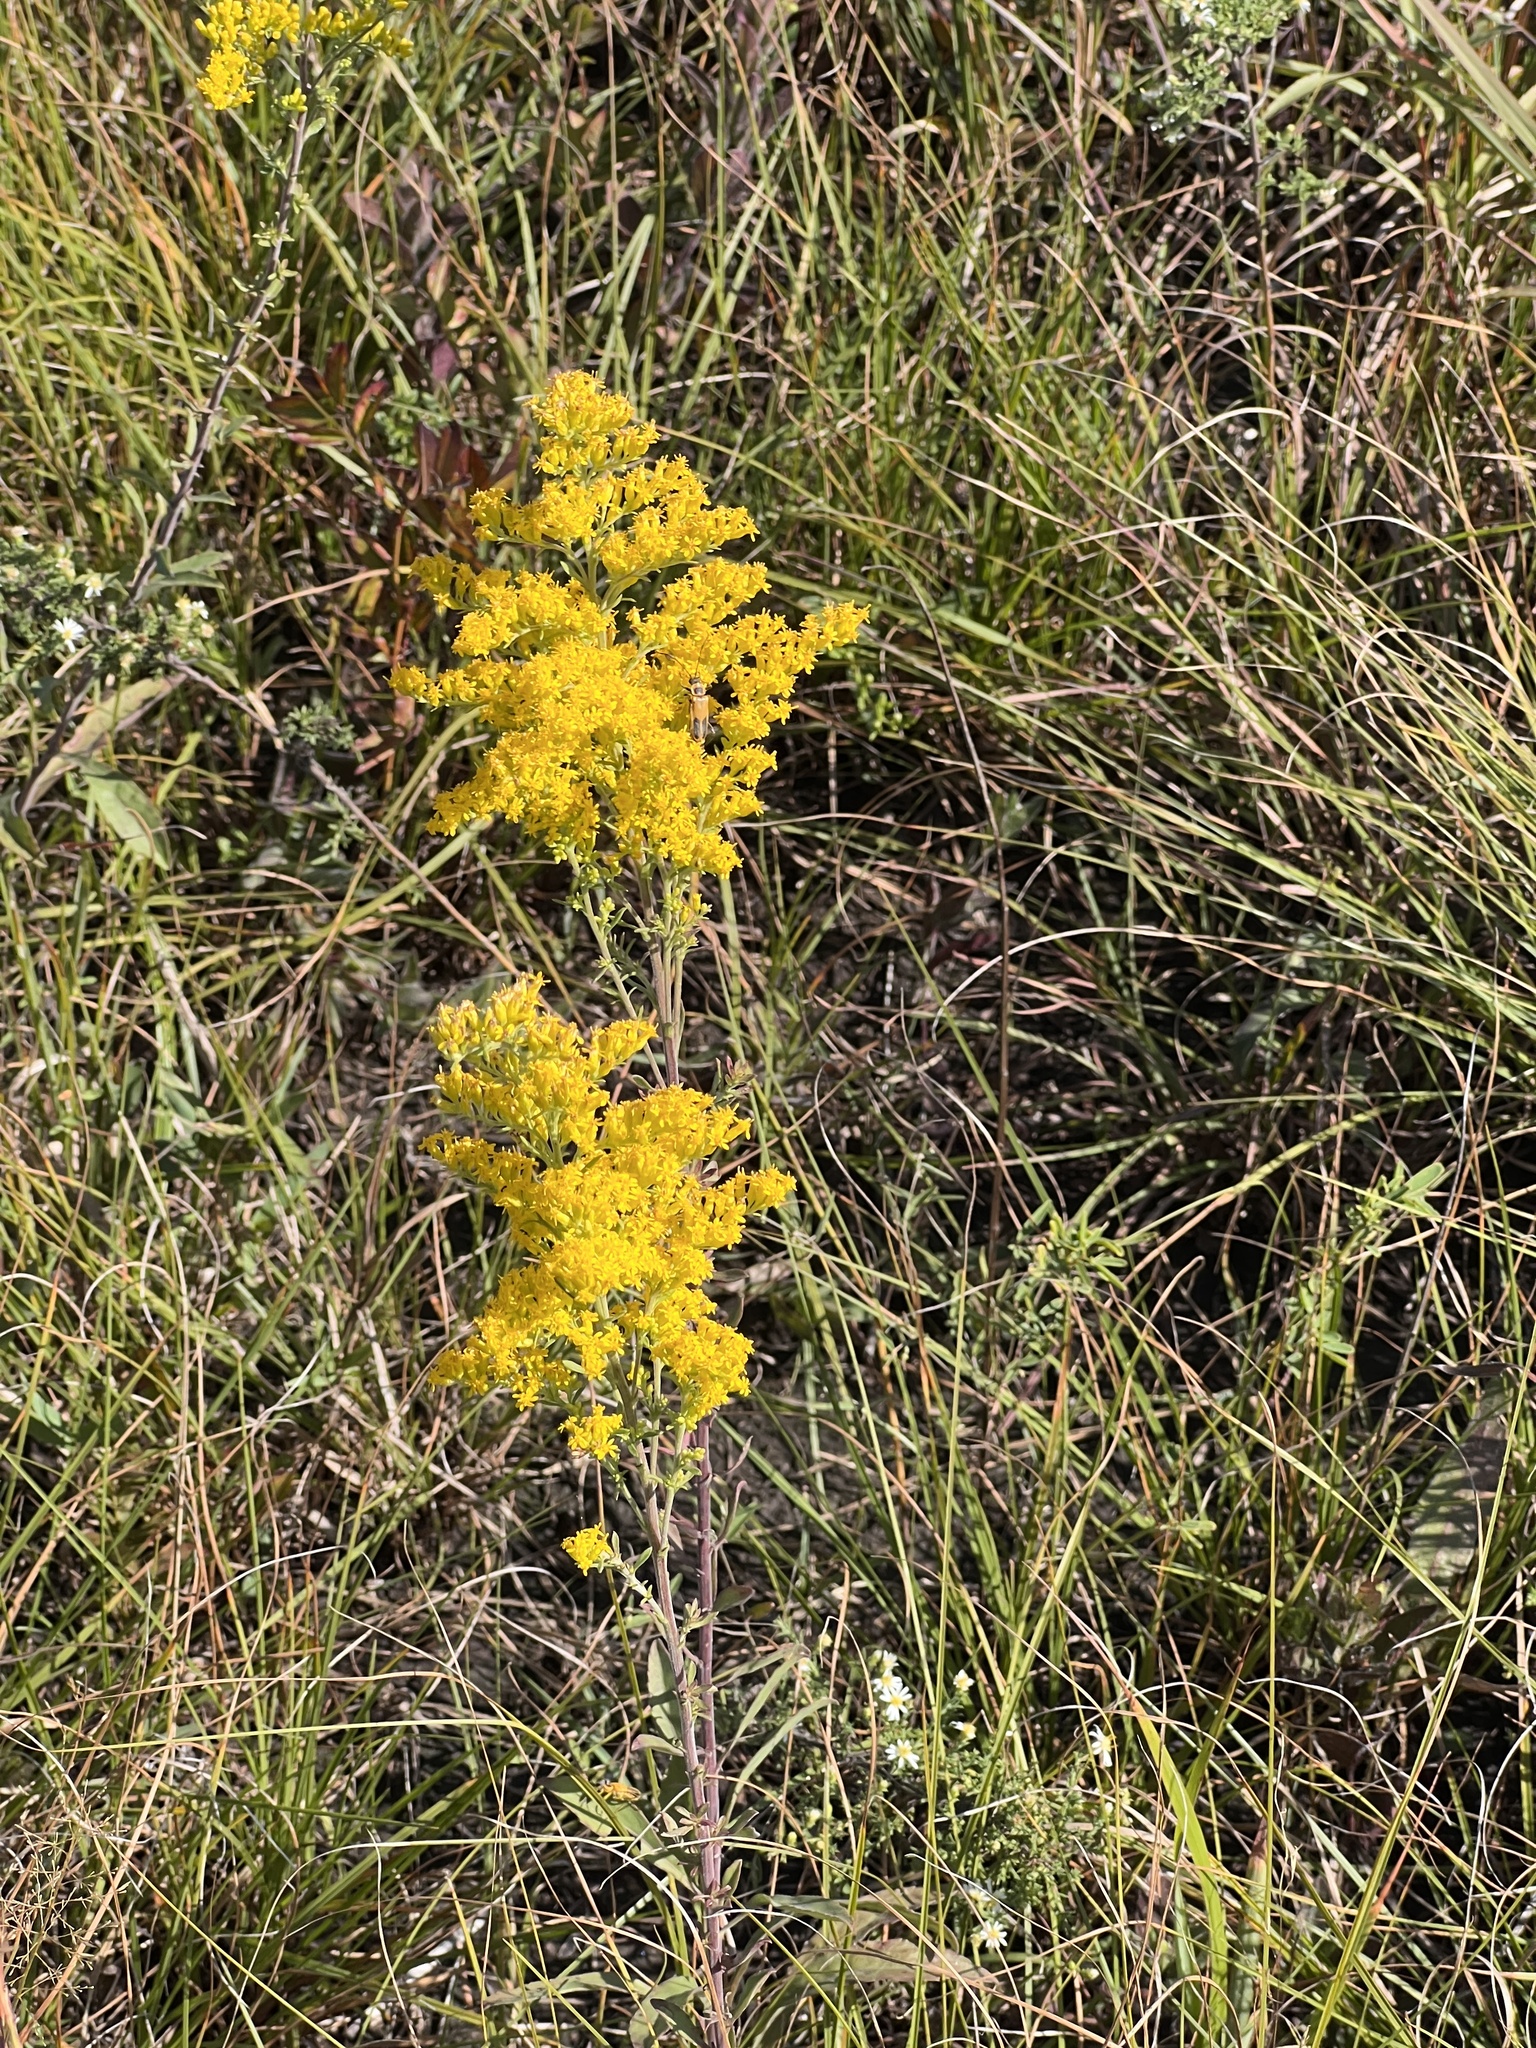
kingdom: Plantae
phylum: Tracheophyta
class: Magnoliopsida
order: Asterales
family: Asteraceae
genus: Solidago
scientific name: Solidago nemoralis
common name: Grey goldenrod
